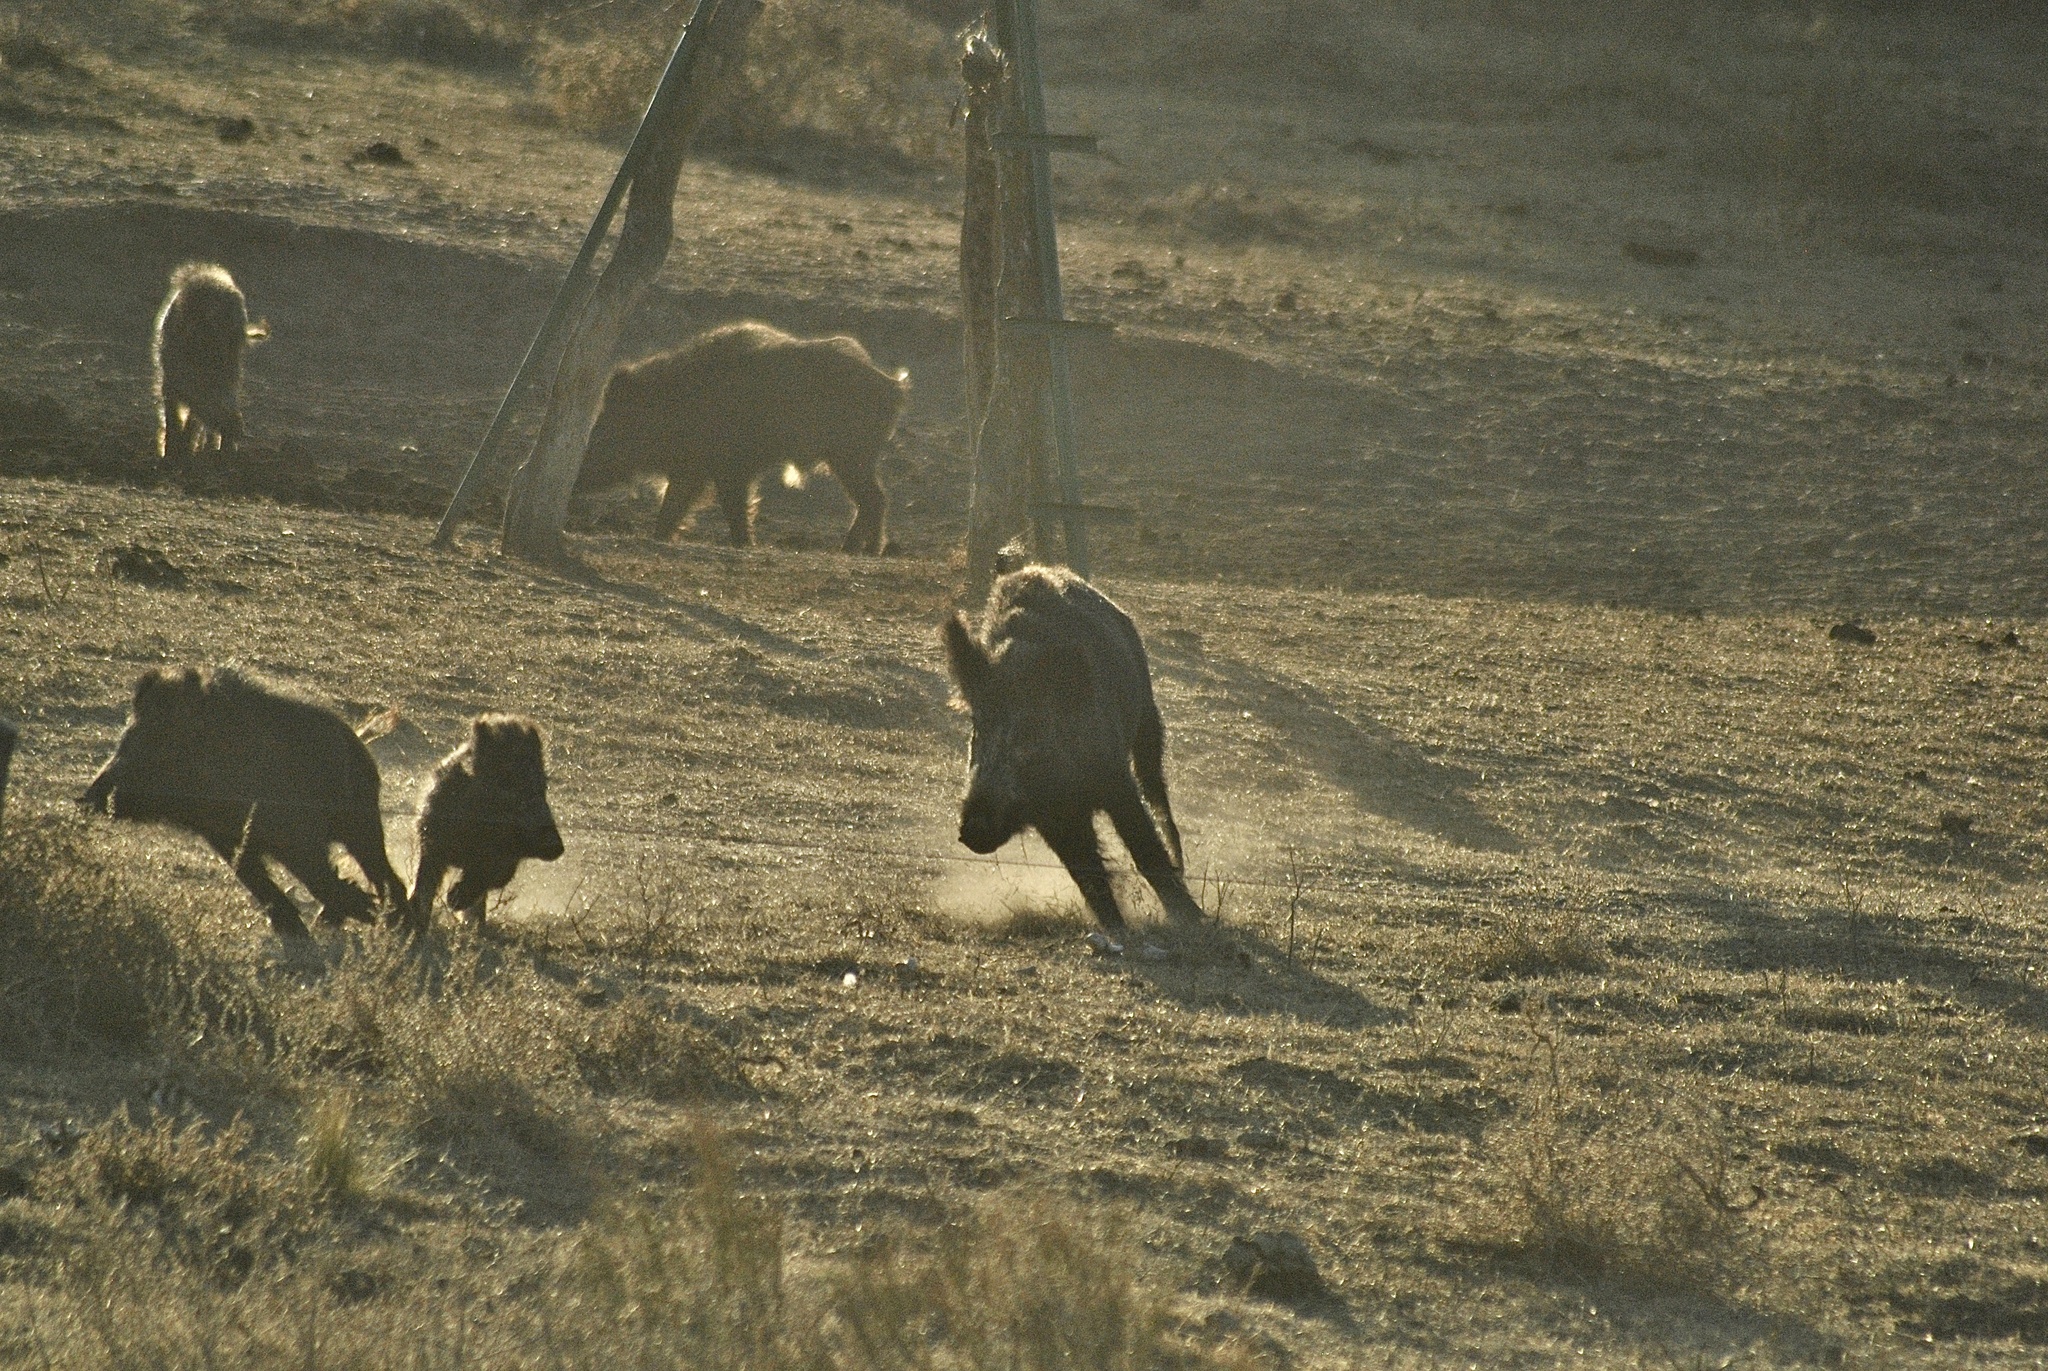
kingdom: Animalia
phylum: Chordata
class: Mammalia
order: Artiodactyla
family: Suidae
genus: Sus
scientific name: Sus scrofa
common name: Wild boar
